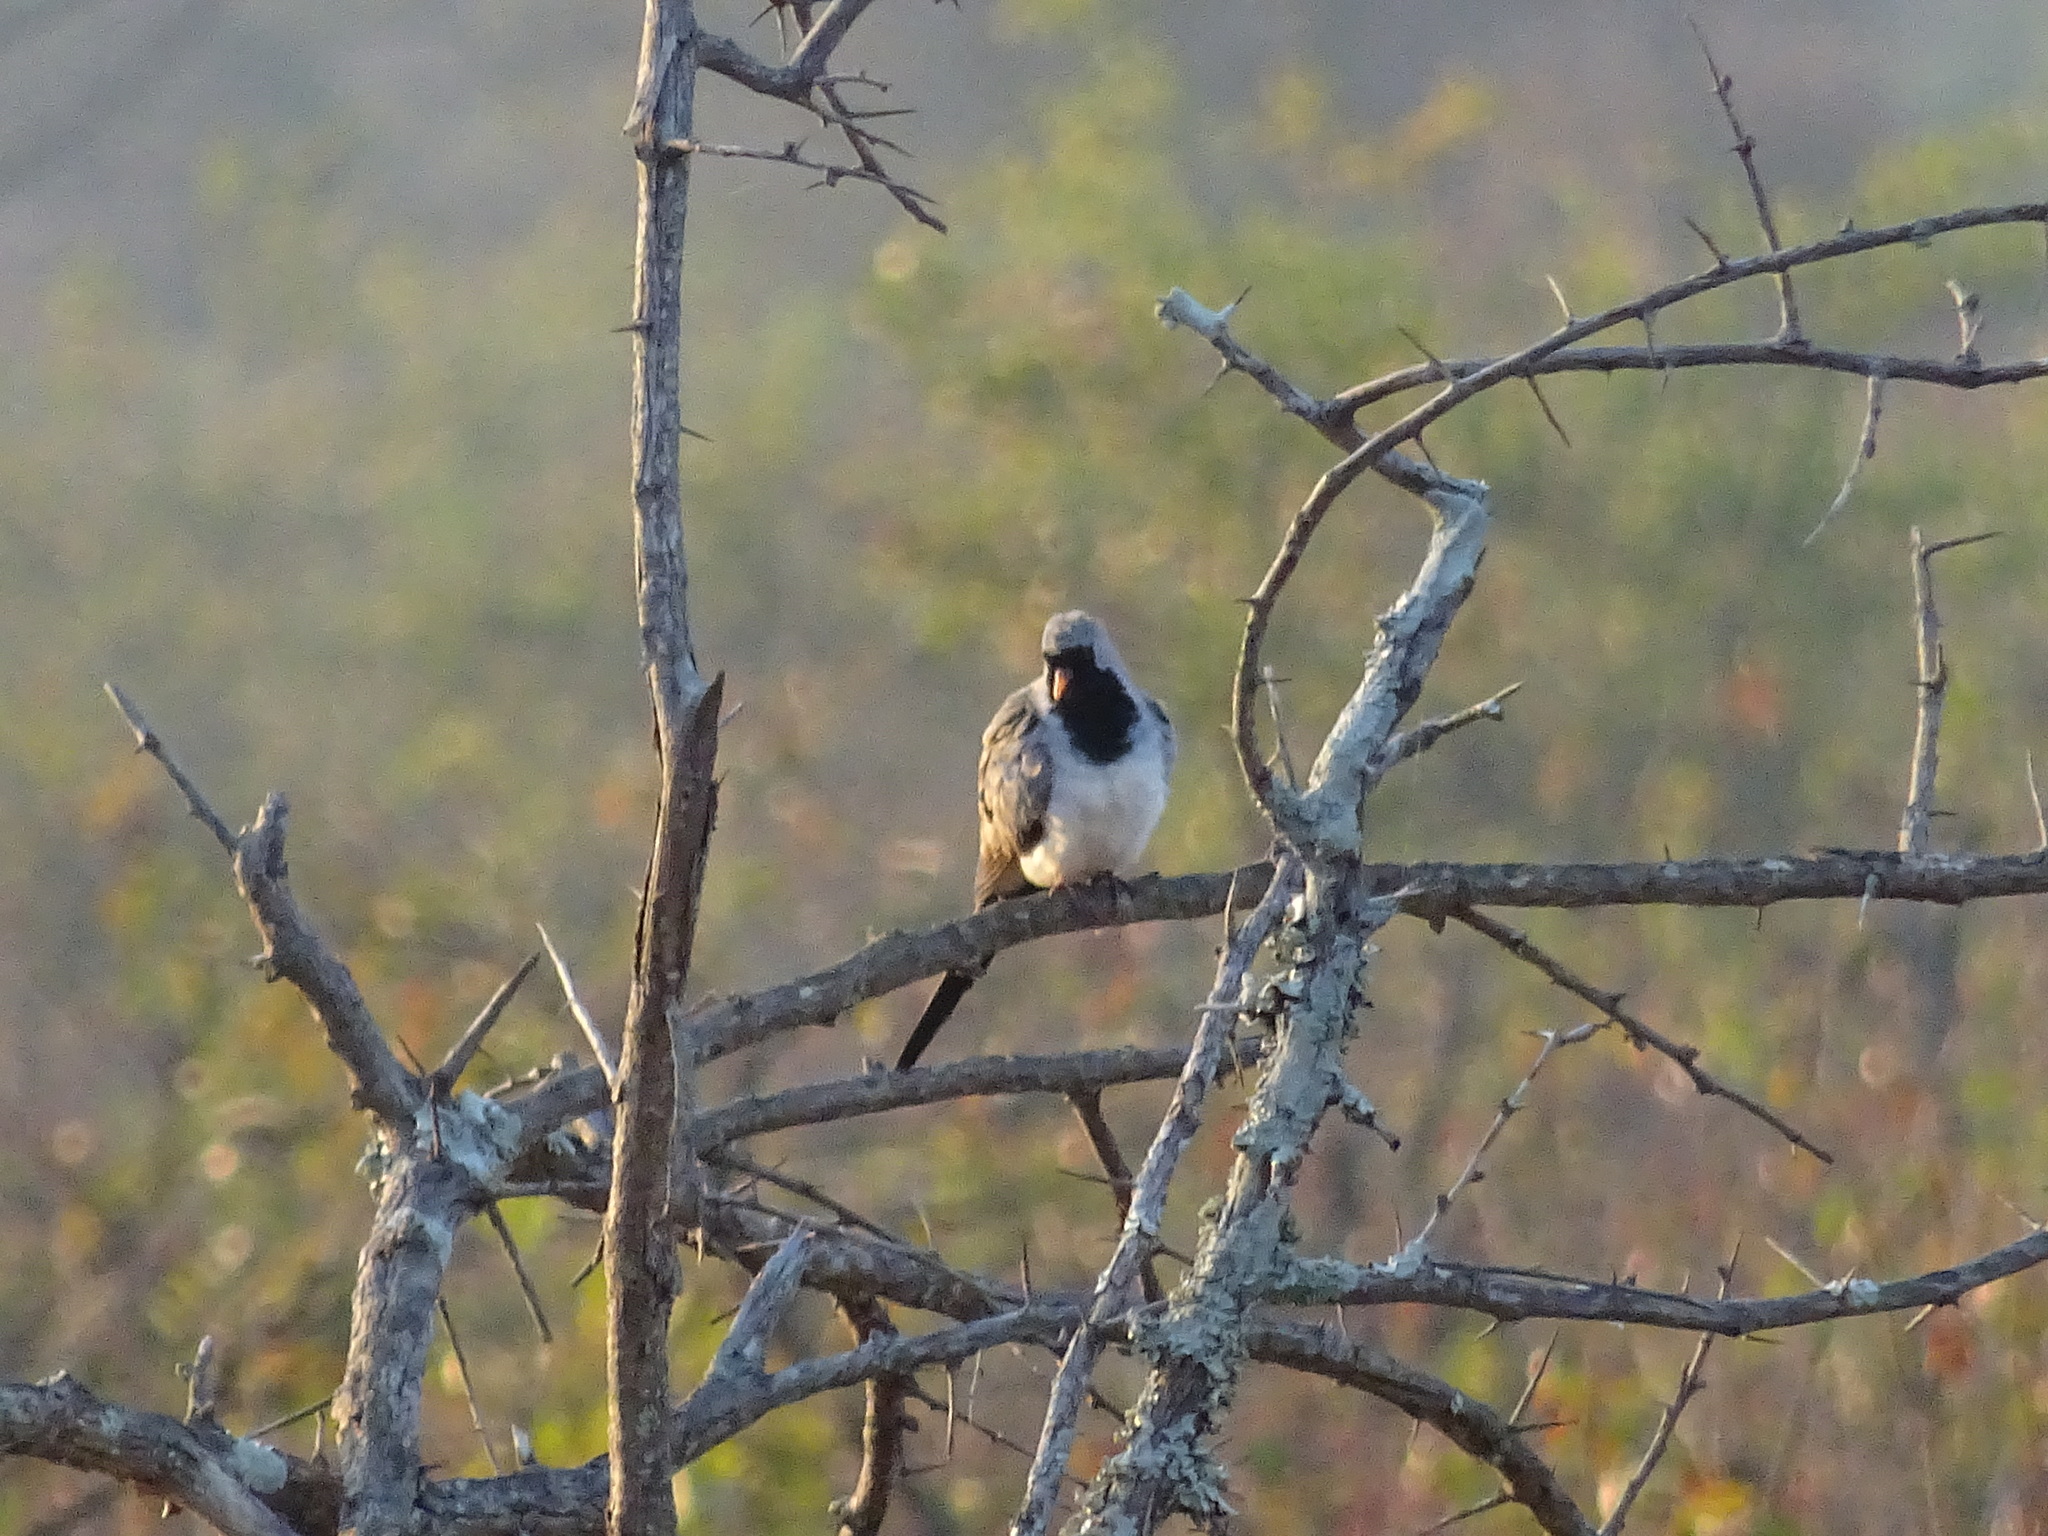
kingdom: Animalia
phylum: Chordata
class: Aves
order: Columbiformes
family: Columbidae
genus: Oena
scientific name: Oena capensis
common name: Namaqua dove
